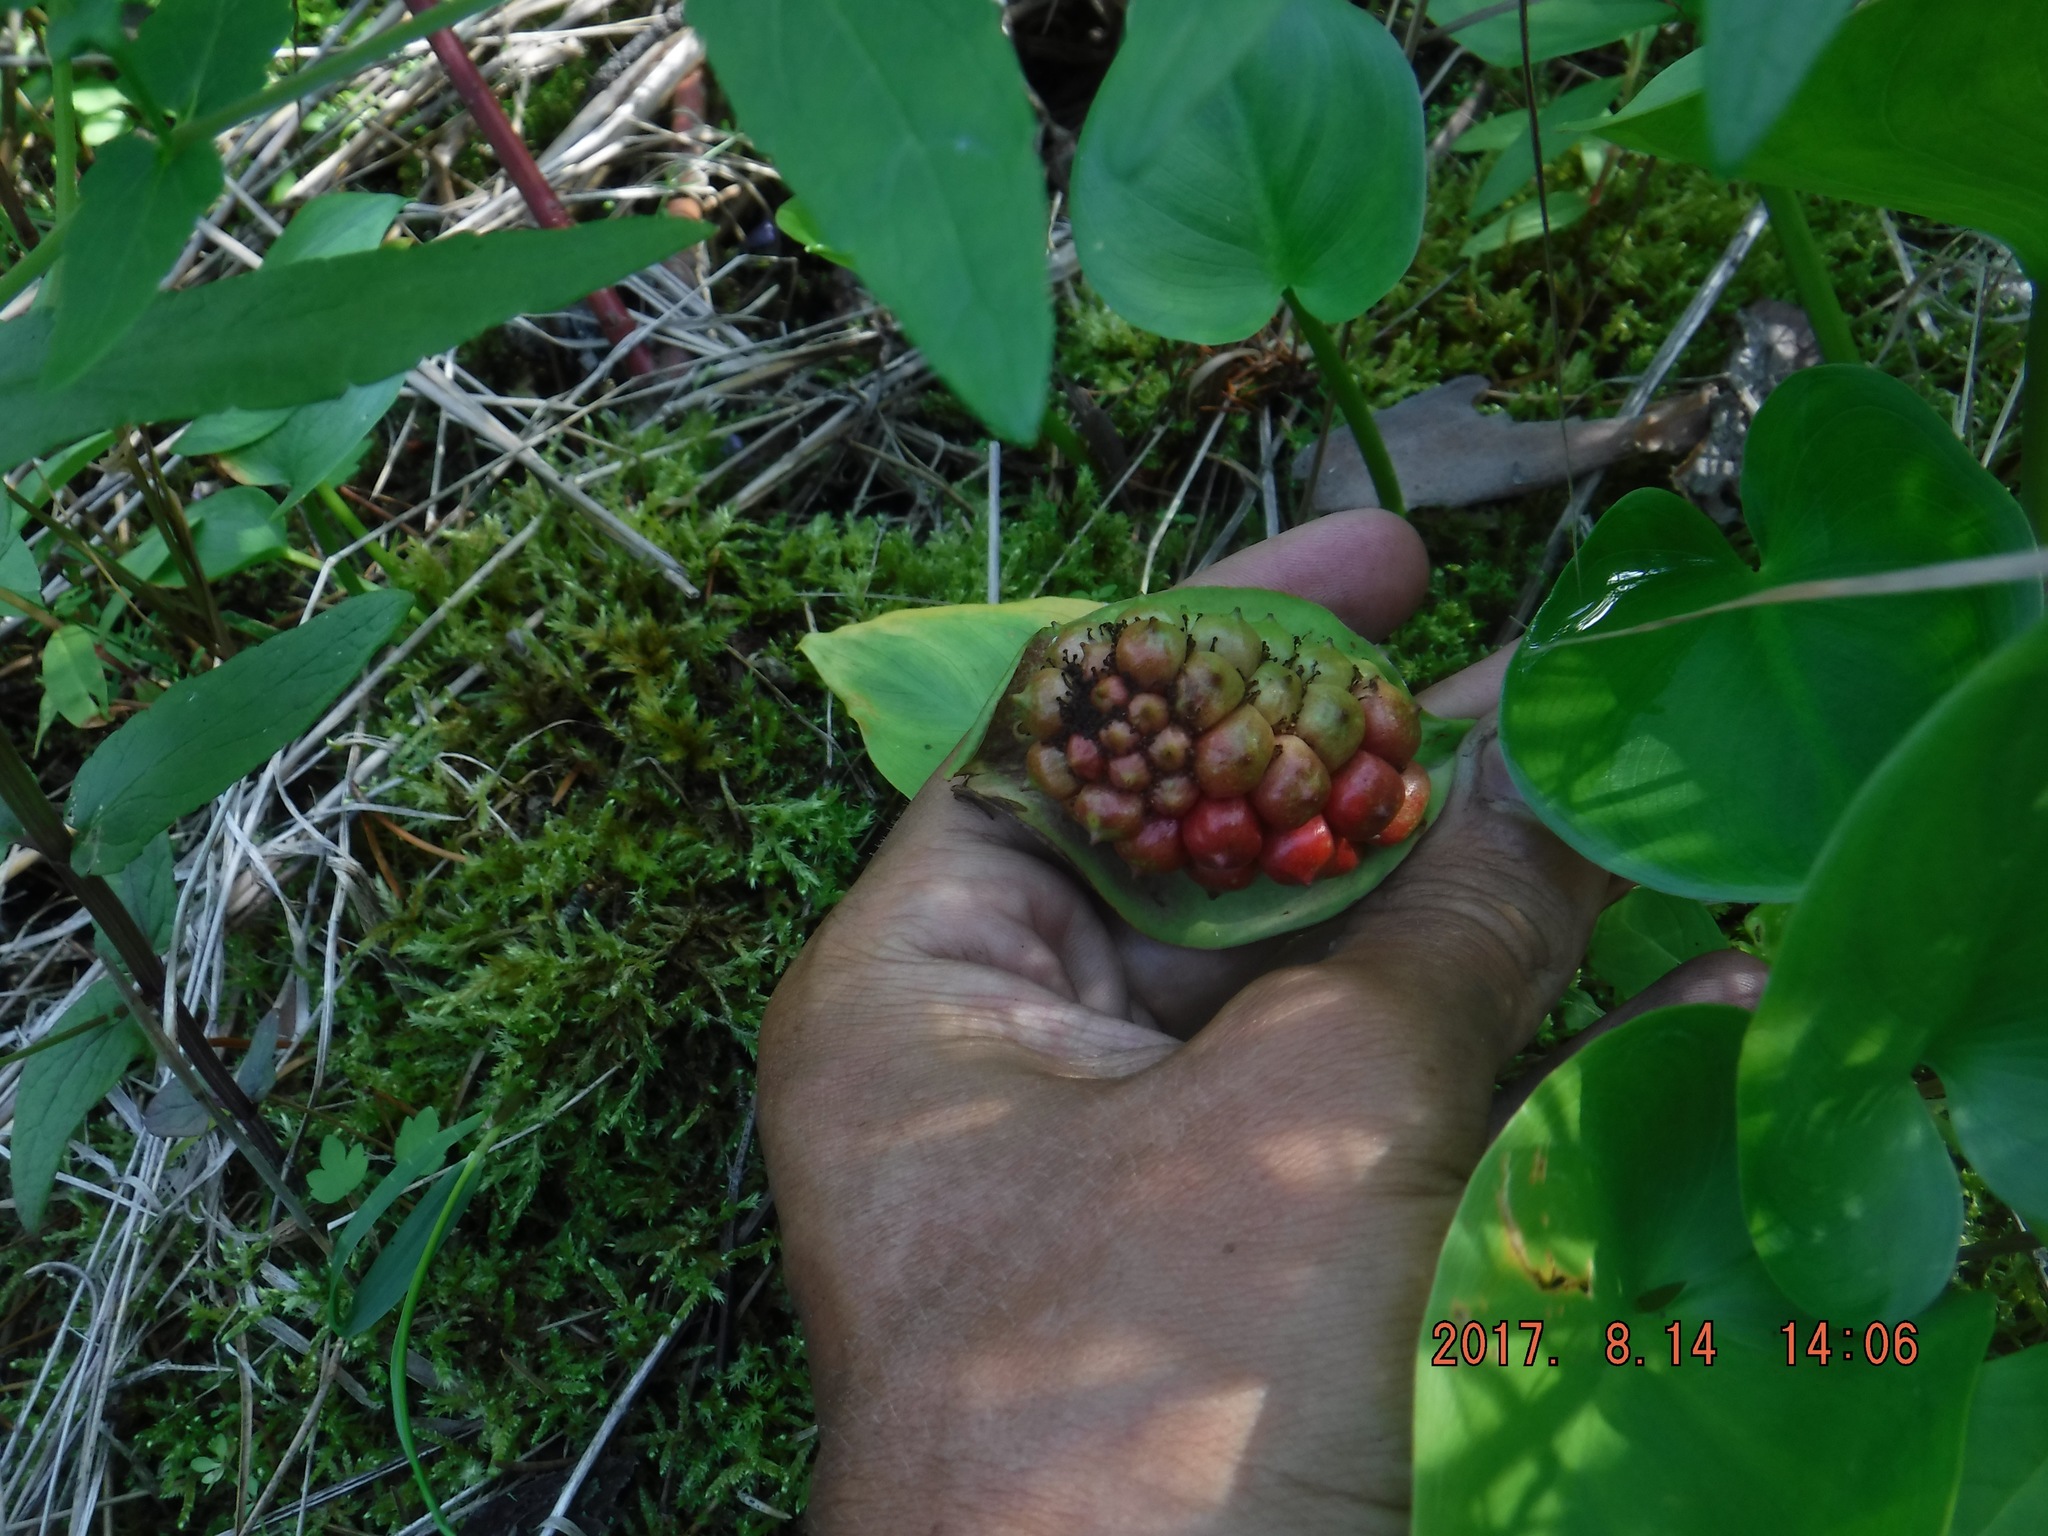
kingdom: Plantae
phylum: Tracheophyta
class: Liliopsida
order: Alismatales
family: Araceae
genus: Calla
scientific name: Calla palustris
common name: Bog arum
